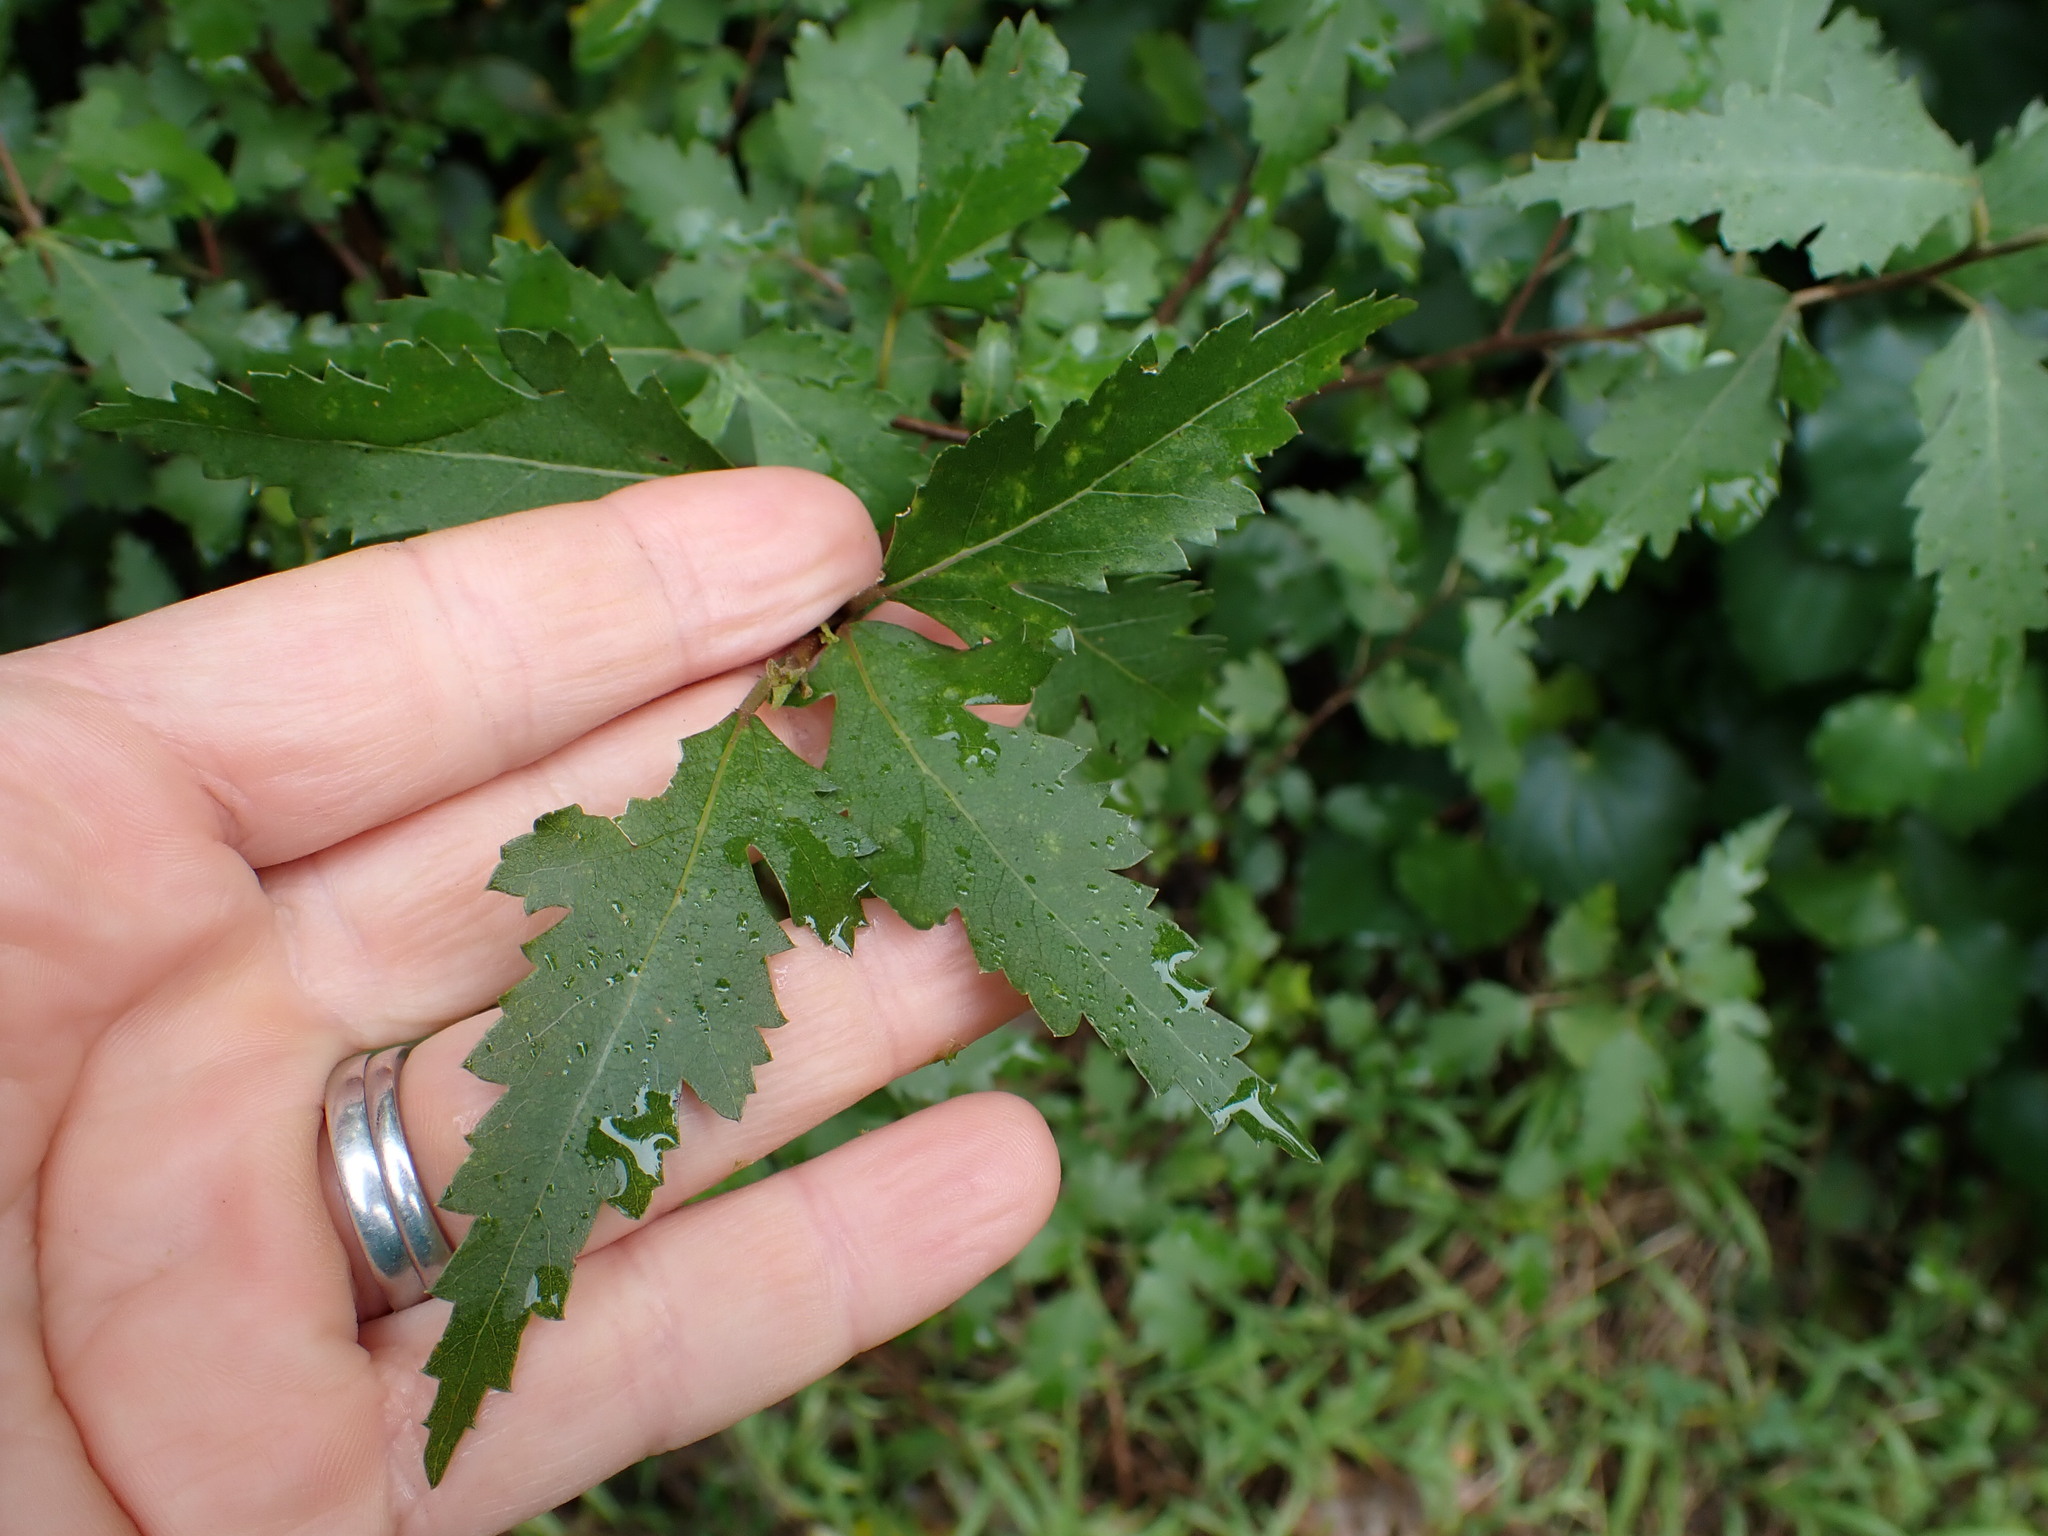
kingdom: Plantae
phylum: Tracheophyta
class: Magnoliopsida
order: Malvales
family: Malvaceae
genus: Hoheria
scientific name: Hoheria sexstylosa
